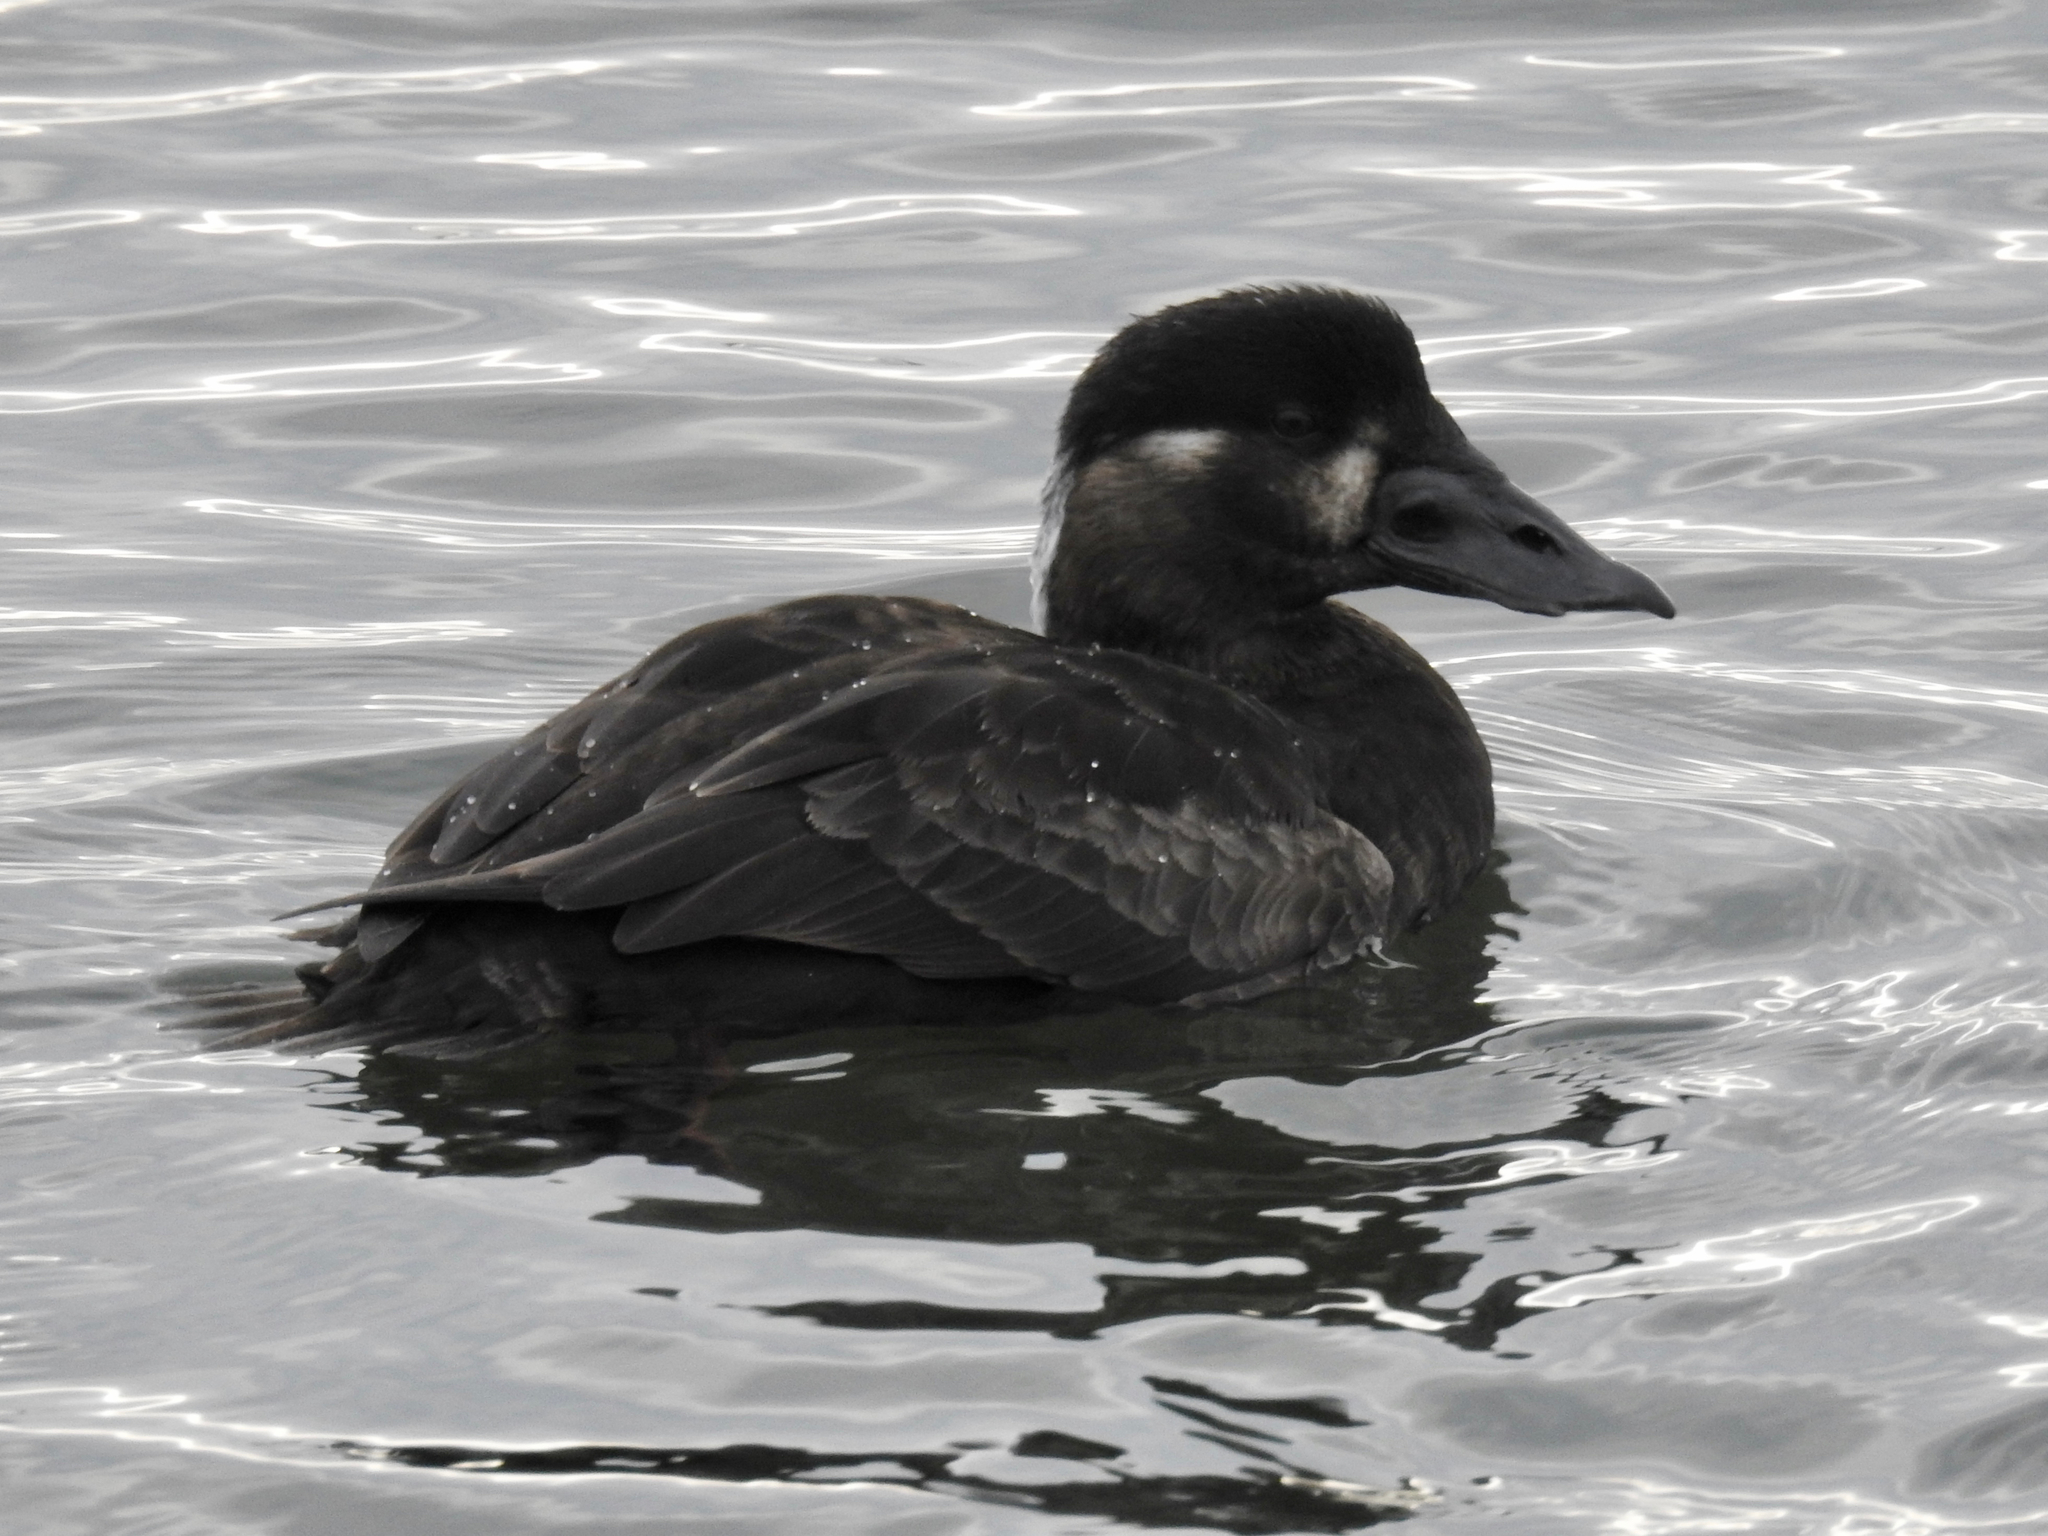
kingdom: Animalia
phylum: Chordata
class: Aves
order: Anseriformes
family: Anatidae
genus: Melanitta
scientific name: Melanitta perspicillata
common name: Surf scoter
